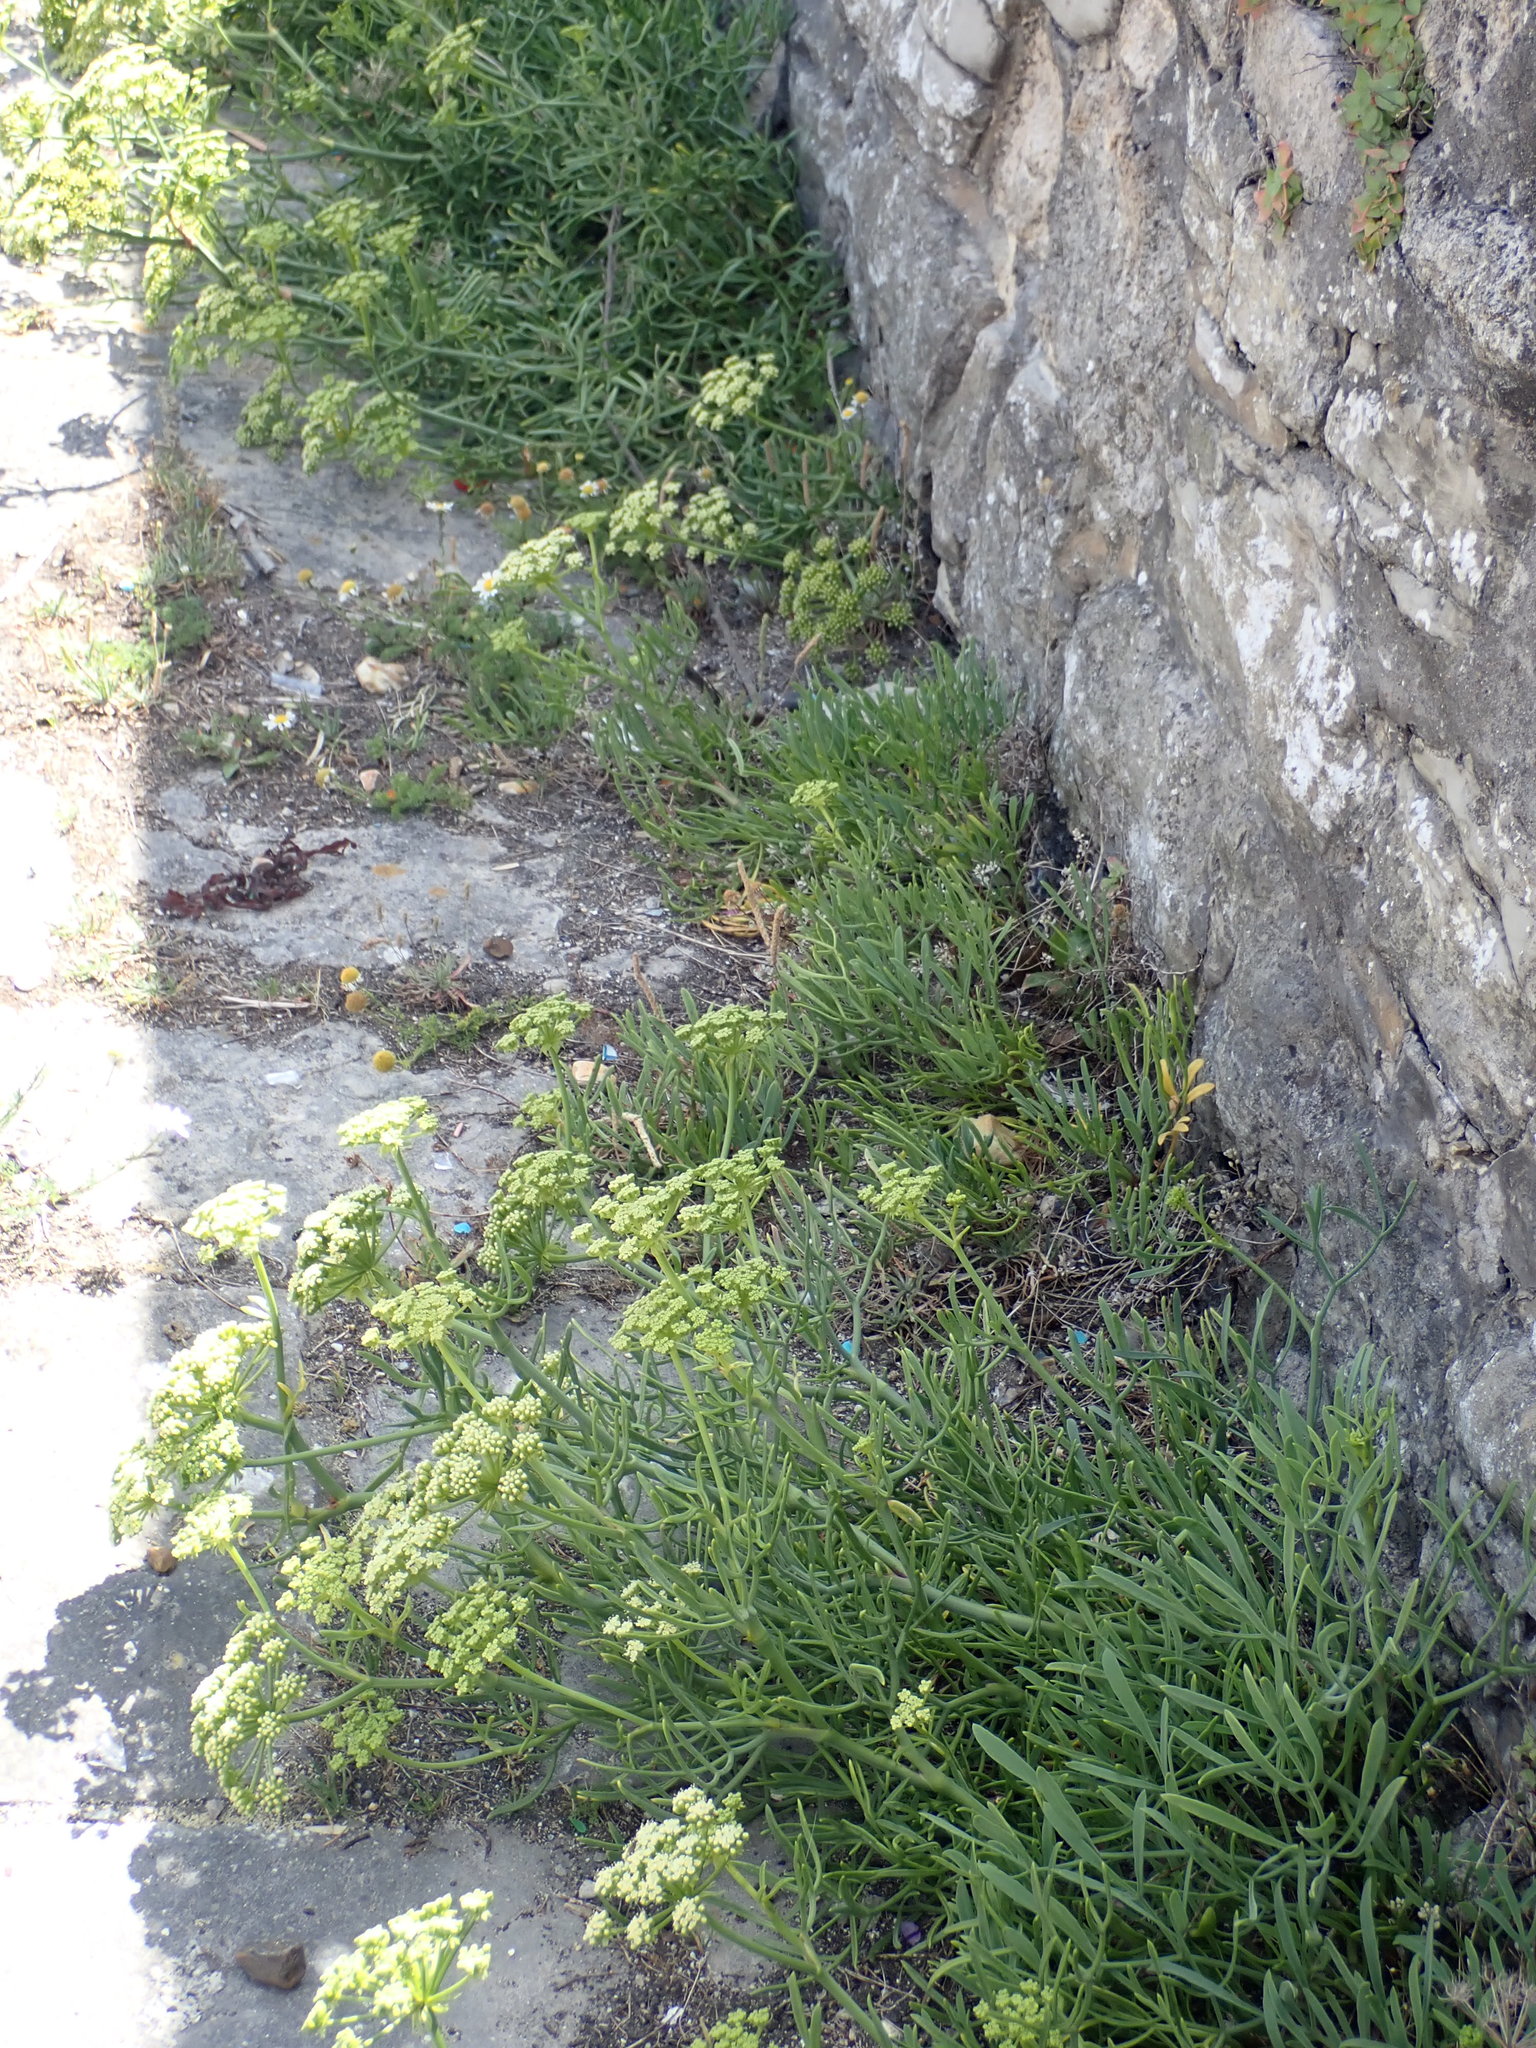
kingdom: Plantae
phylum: Tracheophyta
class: Magnoliopsida
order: Apiales
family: Apiaceae
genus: Crithmum
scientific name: Crithmum maritimum
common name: Rock samphire
